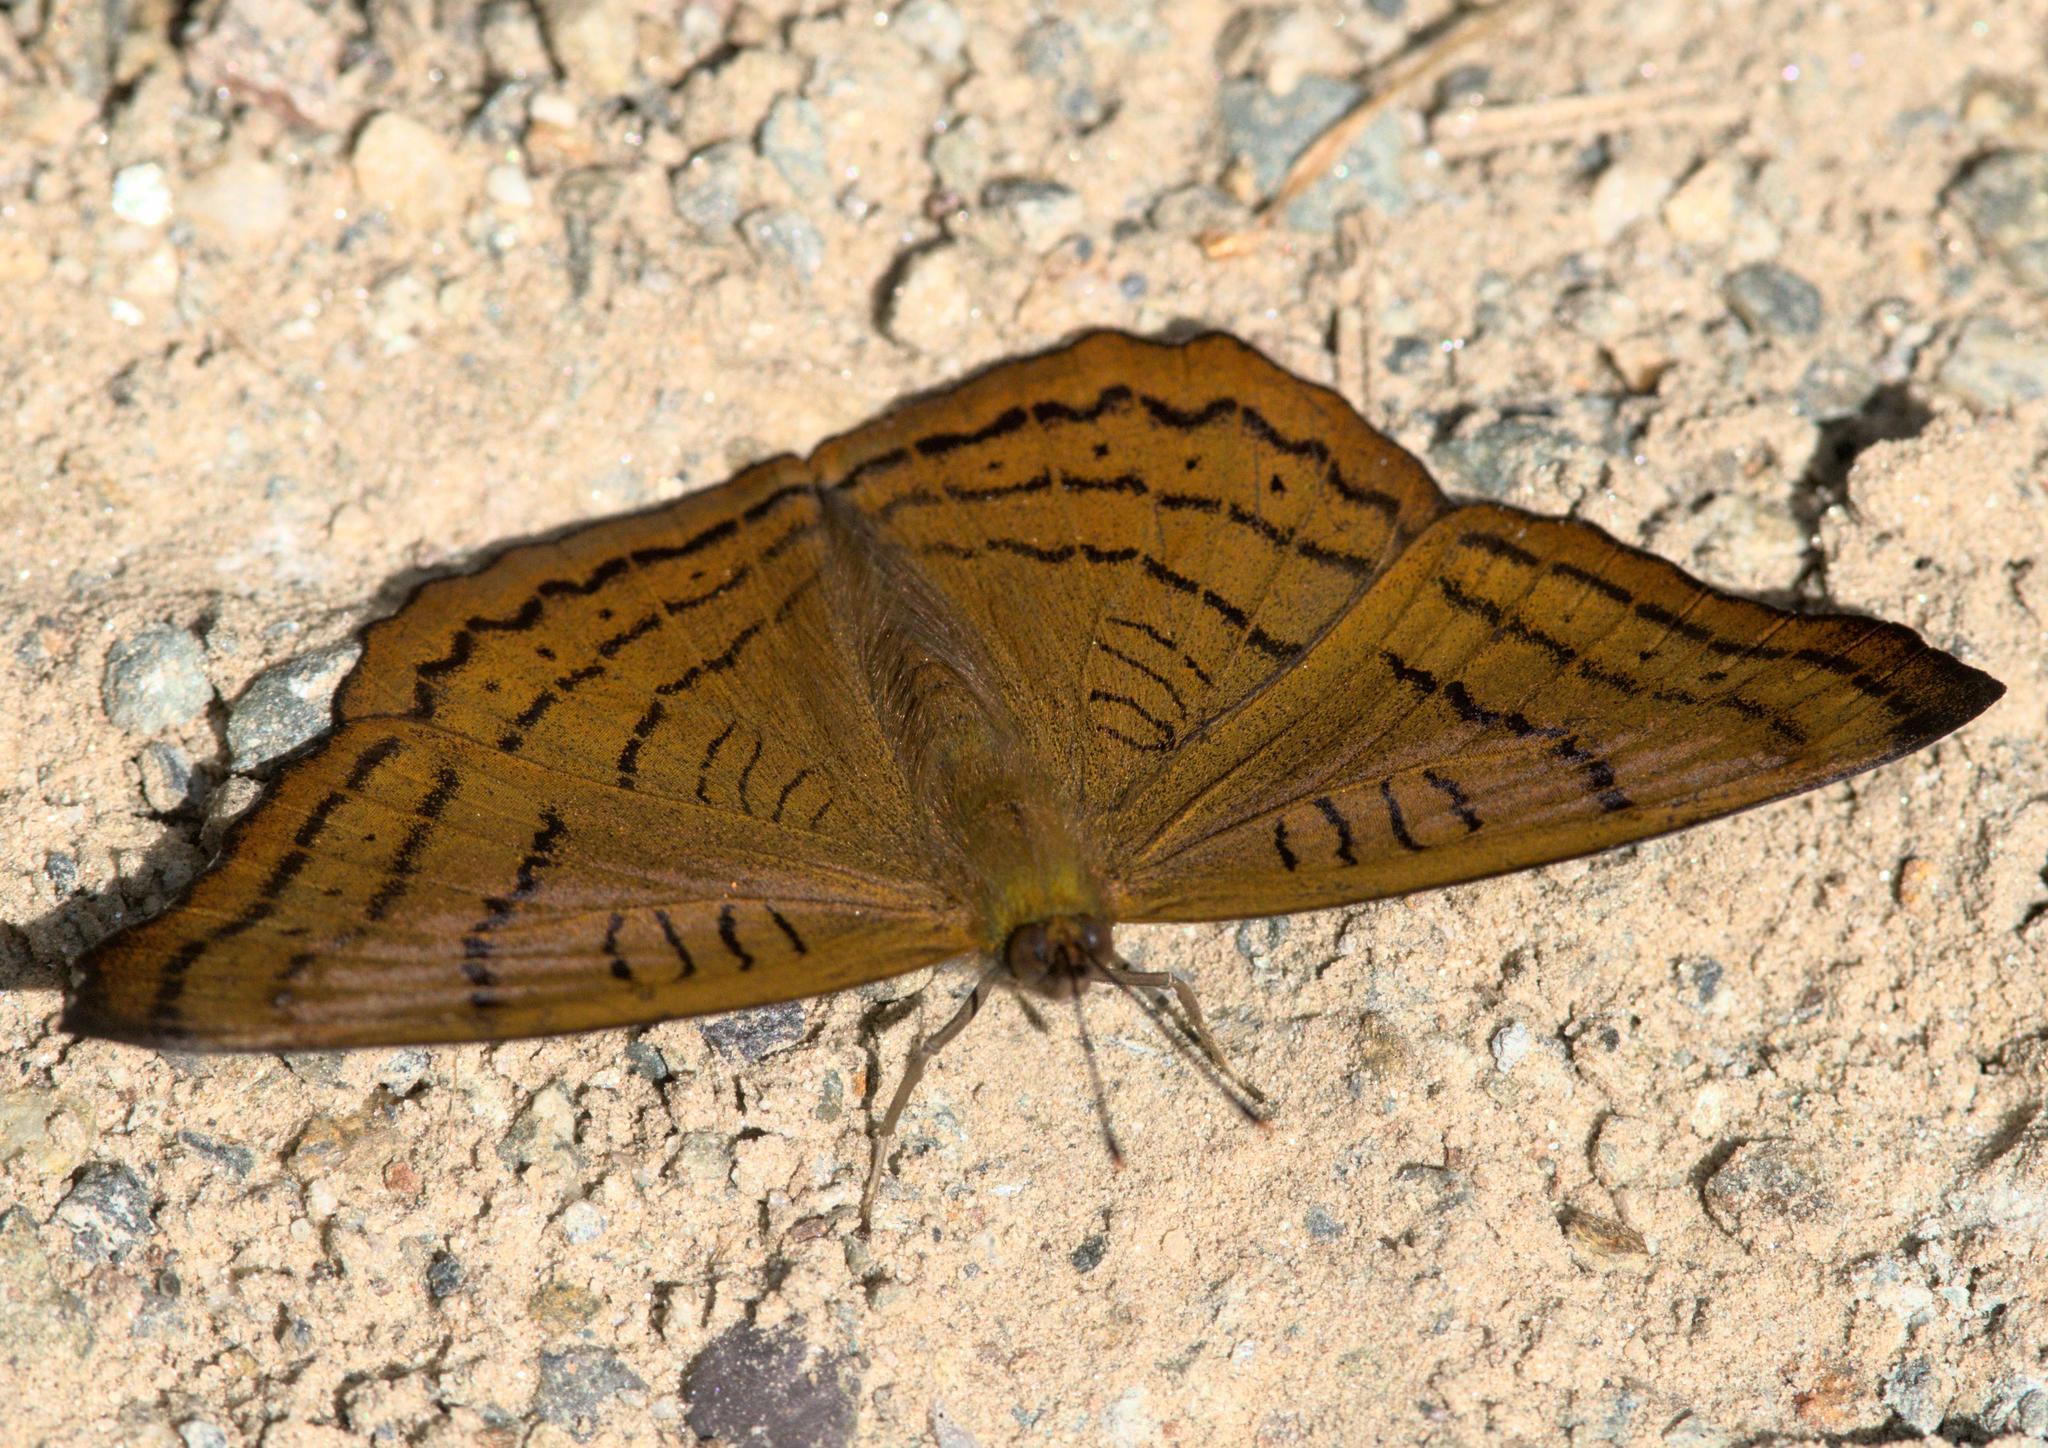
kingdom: Animalia
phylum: Arthropoda
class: Insecta
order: Lepidoptera
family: Nymphalidae
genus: Pseudergolis
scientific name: Pseudergolis wedah
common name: Tabby
